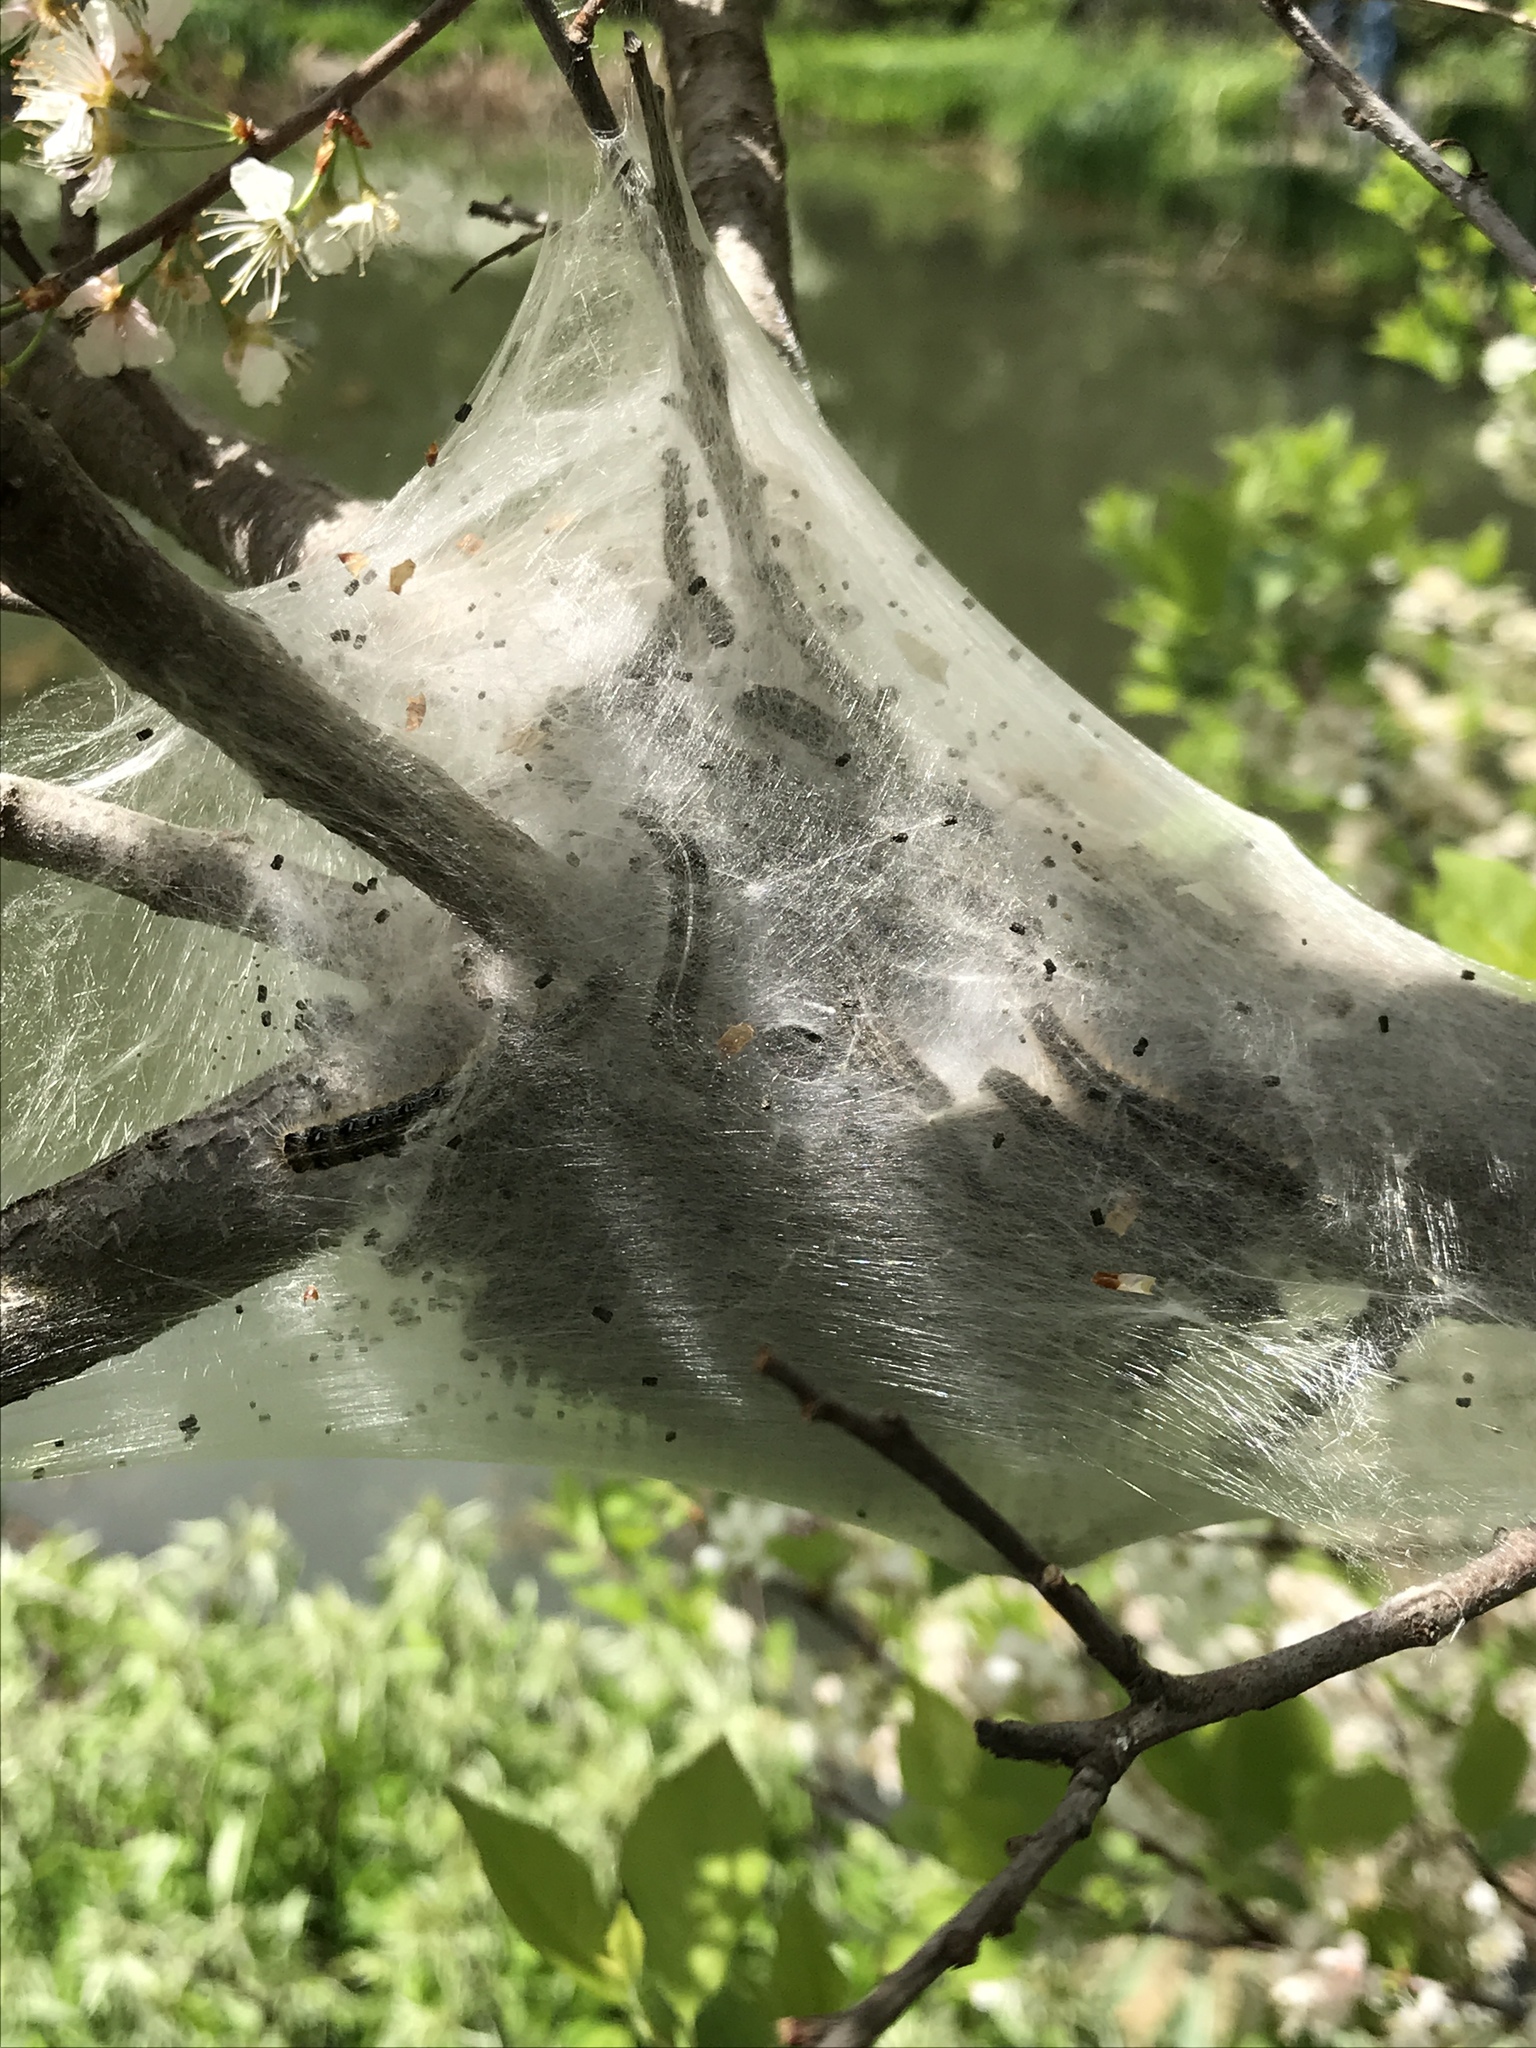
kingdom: Animalia
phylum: Arthropoda
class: Insecta
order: Lepidoptera
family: Lasiocampidae
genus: Malacosoma
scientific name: Malacosoma americana
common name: Eastern tent caterpillar moth
